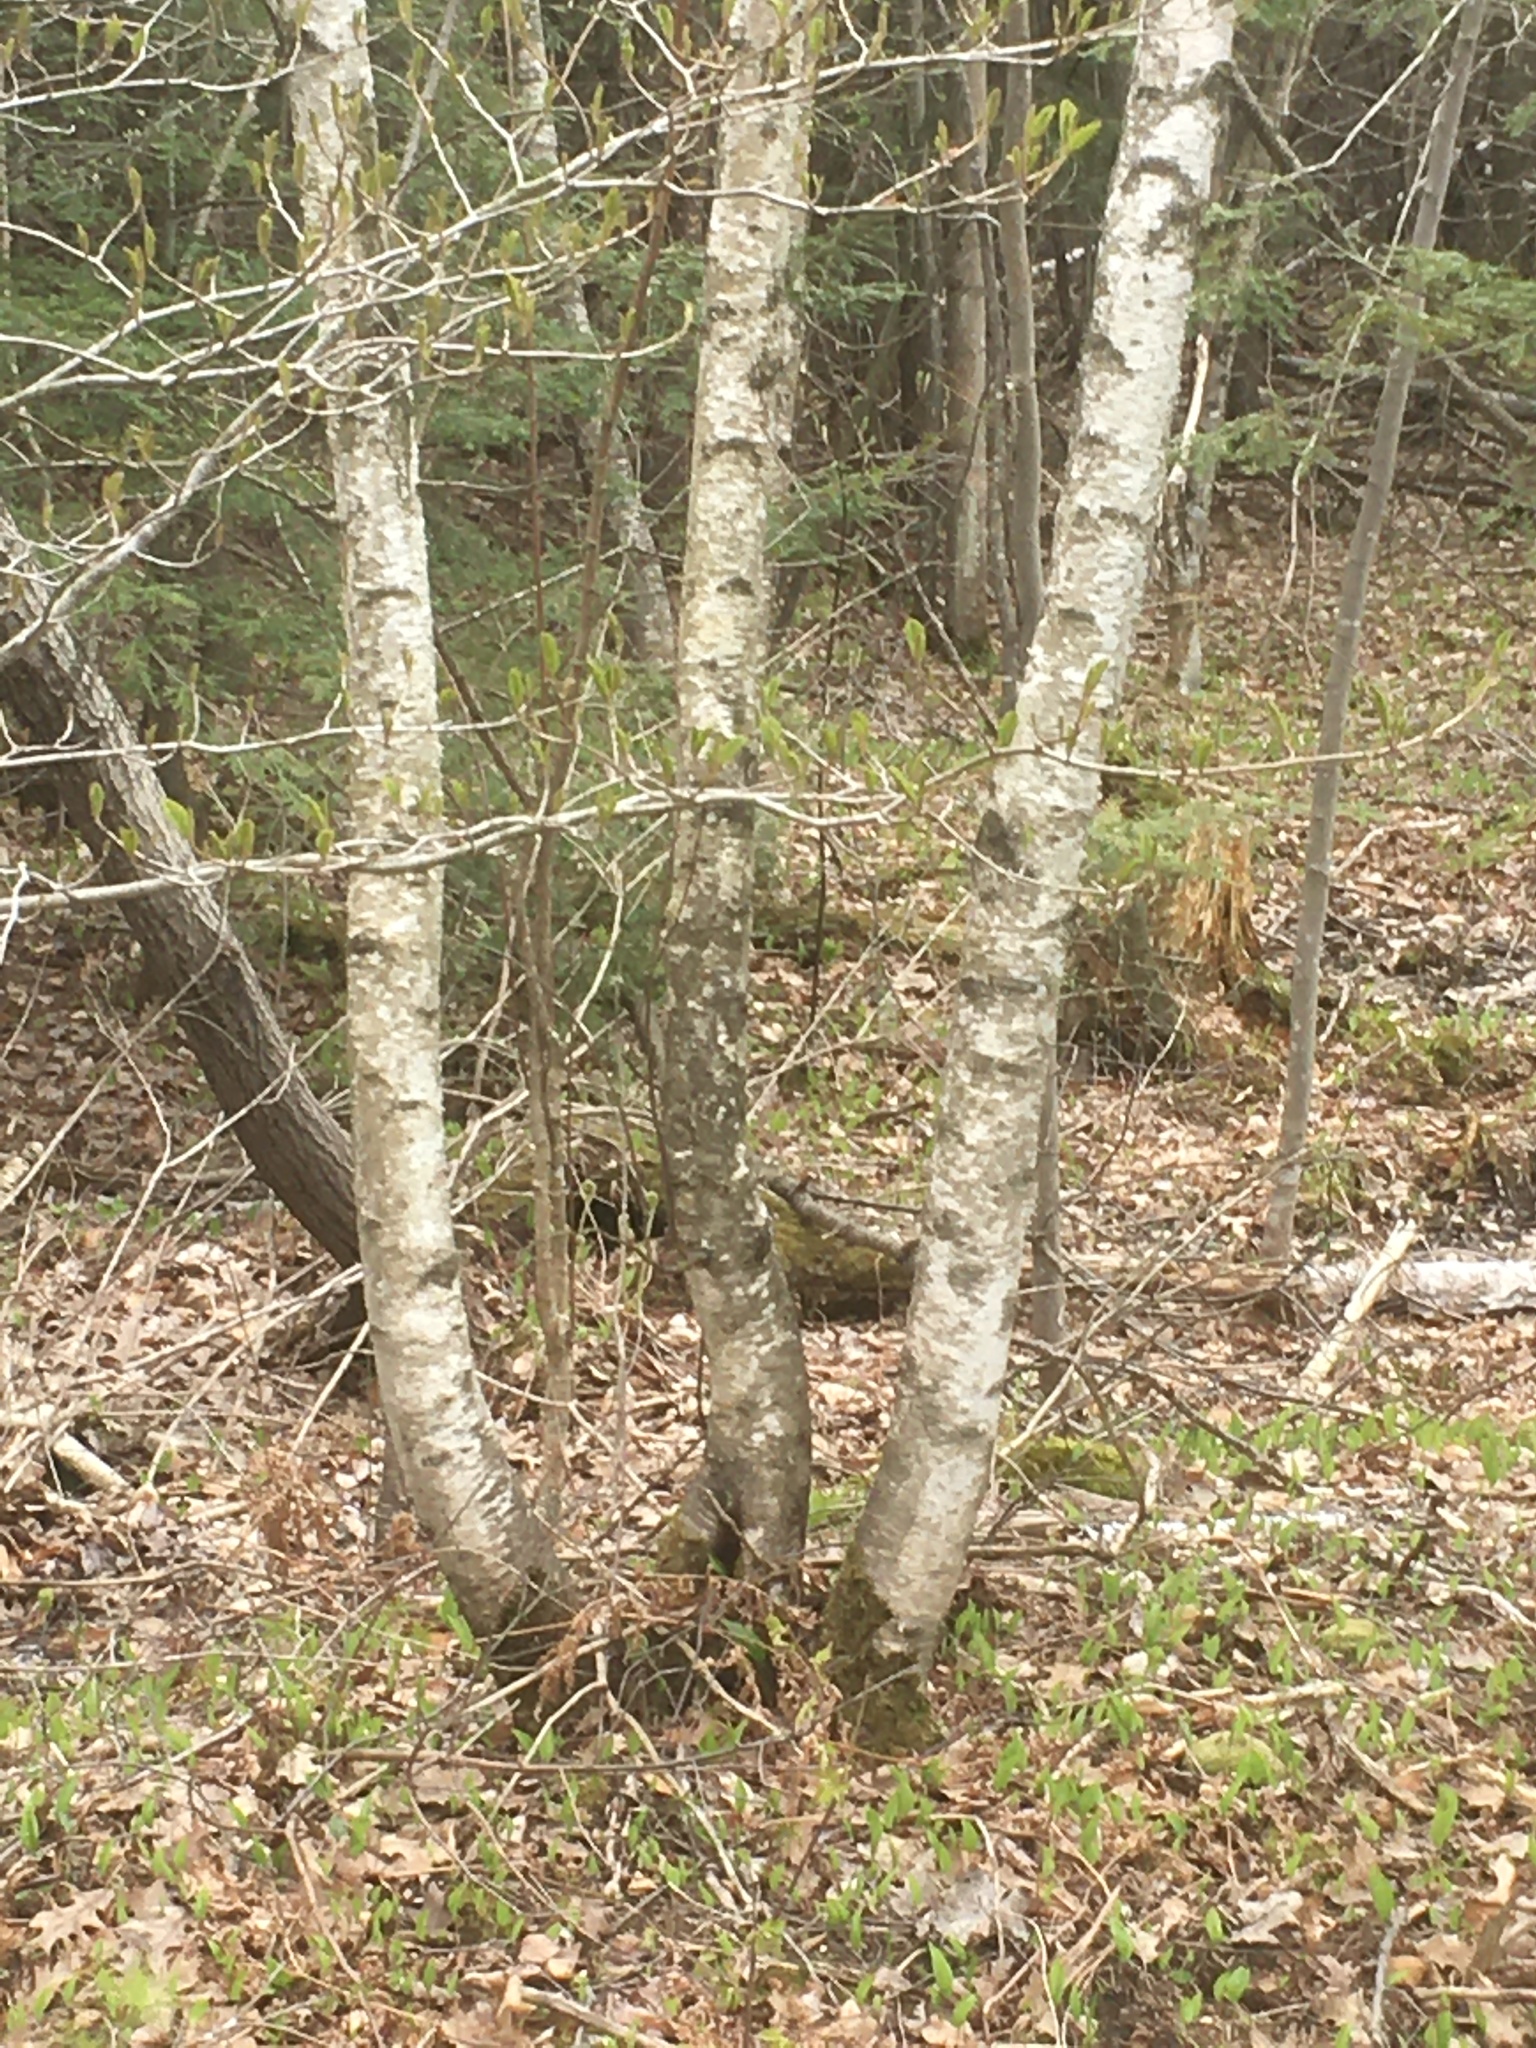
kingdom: Plantae
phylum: Tracheophyta
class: Magnoliopsida
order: Fagales
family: Betulaceae
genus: Betula
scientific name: Betula populifolia
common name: Fire birch
